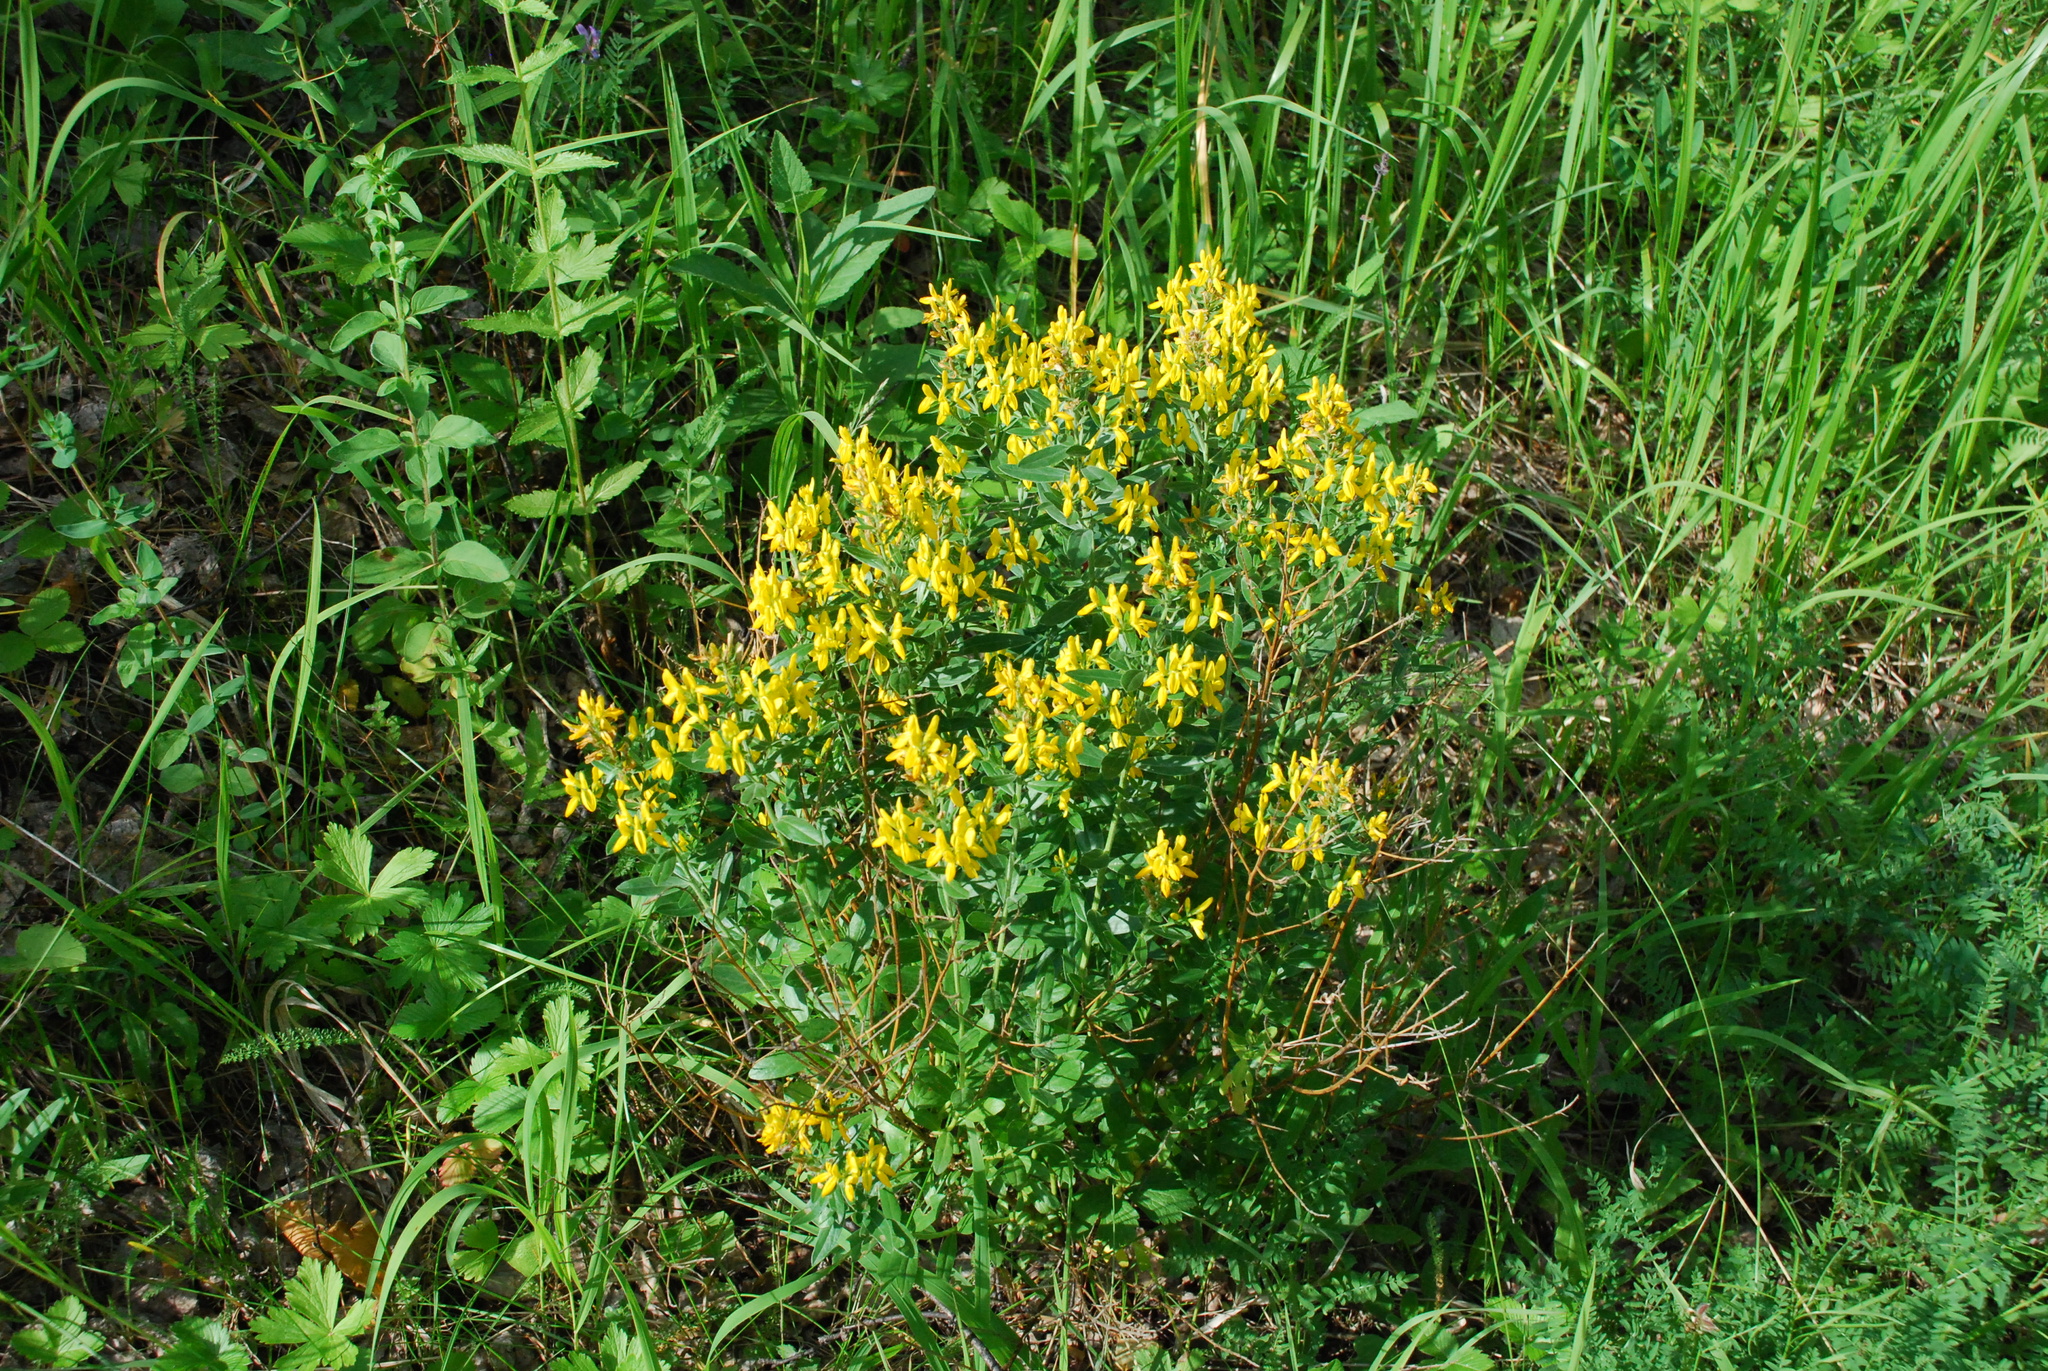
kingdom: Plantae
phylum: Tracheophyta
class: Magnoliopsida
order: Fabales
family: Fabaceae
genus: Genista
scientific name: Genista tinctoria
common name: Dyer's greenweed
